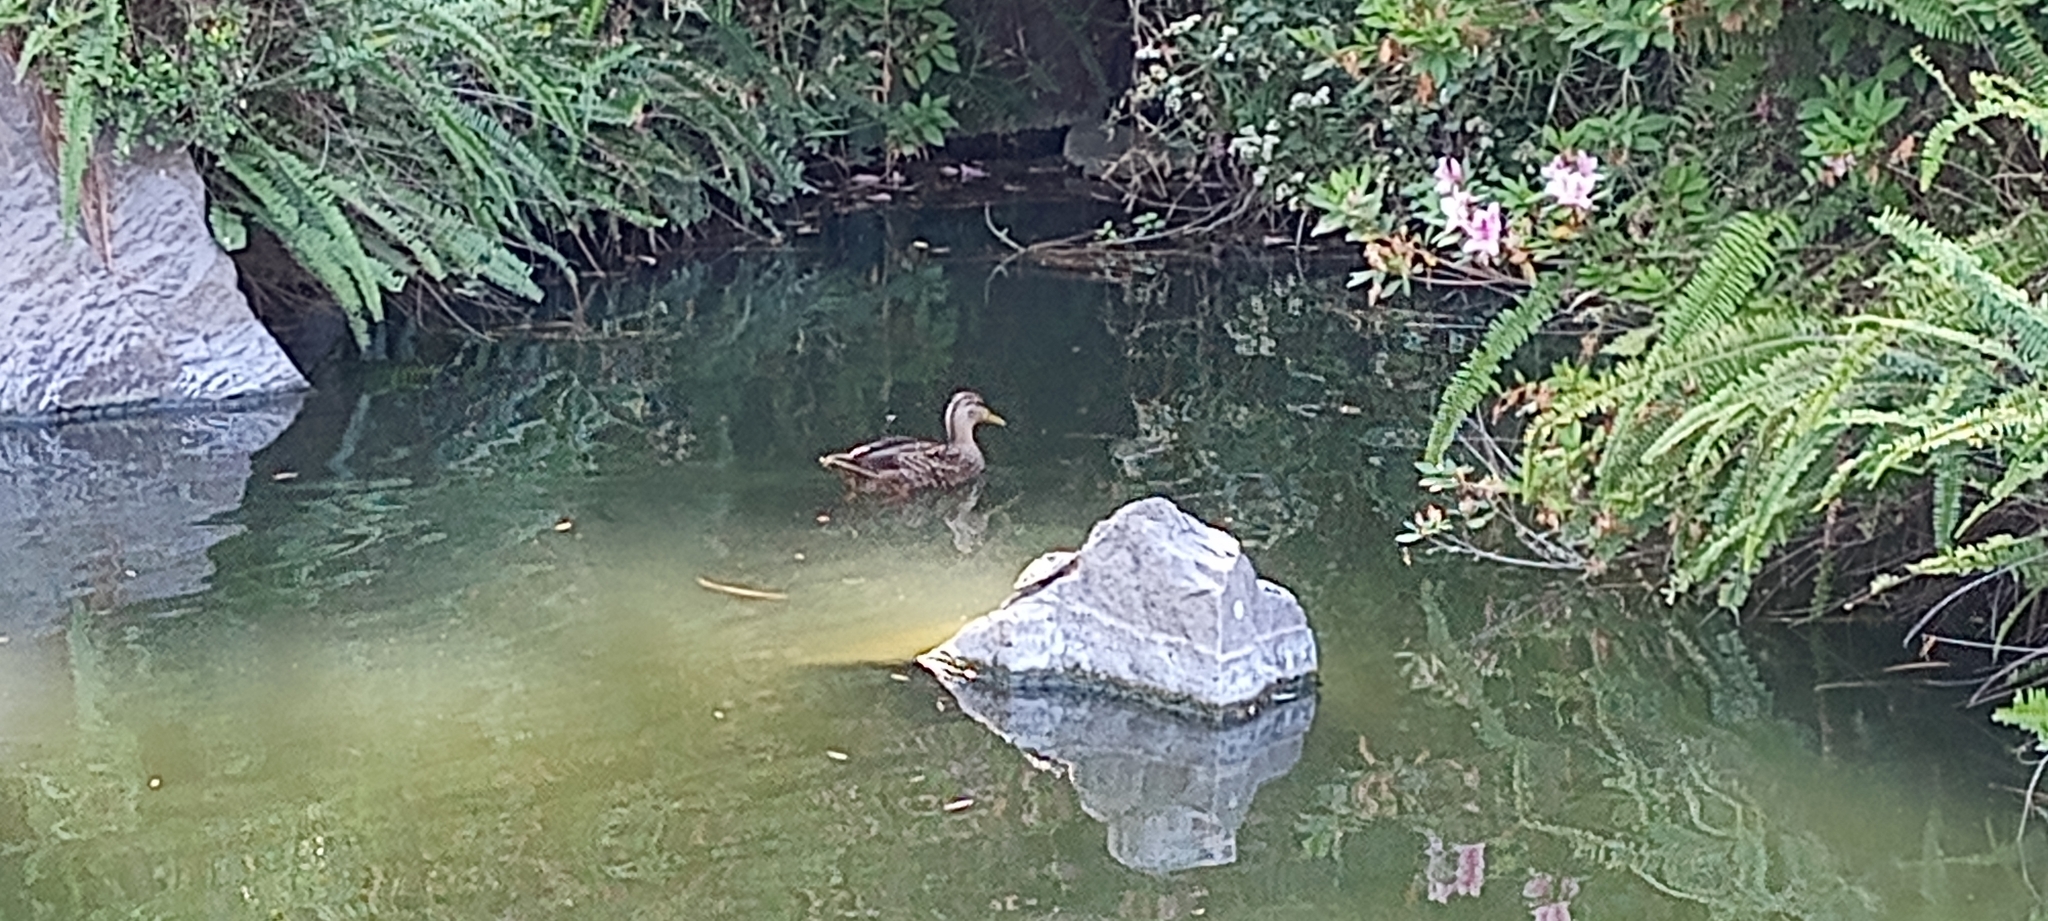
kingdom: Animalia
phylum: Chordata
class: Aves
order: Anseriformes
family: Anatidae
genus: Anas
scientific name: Anas diazi
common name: Mexican duck
